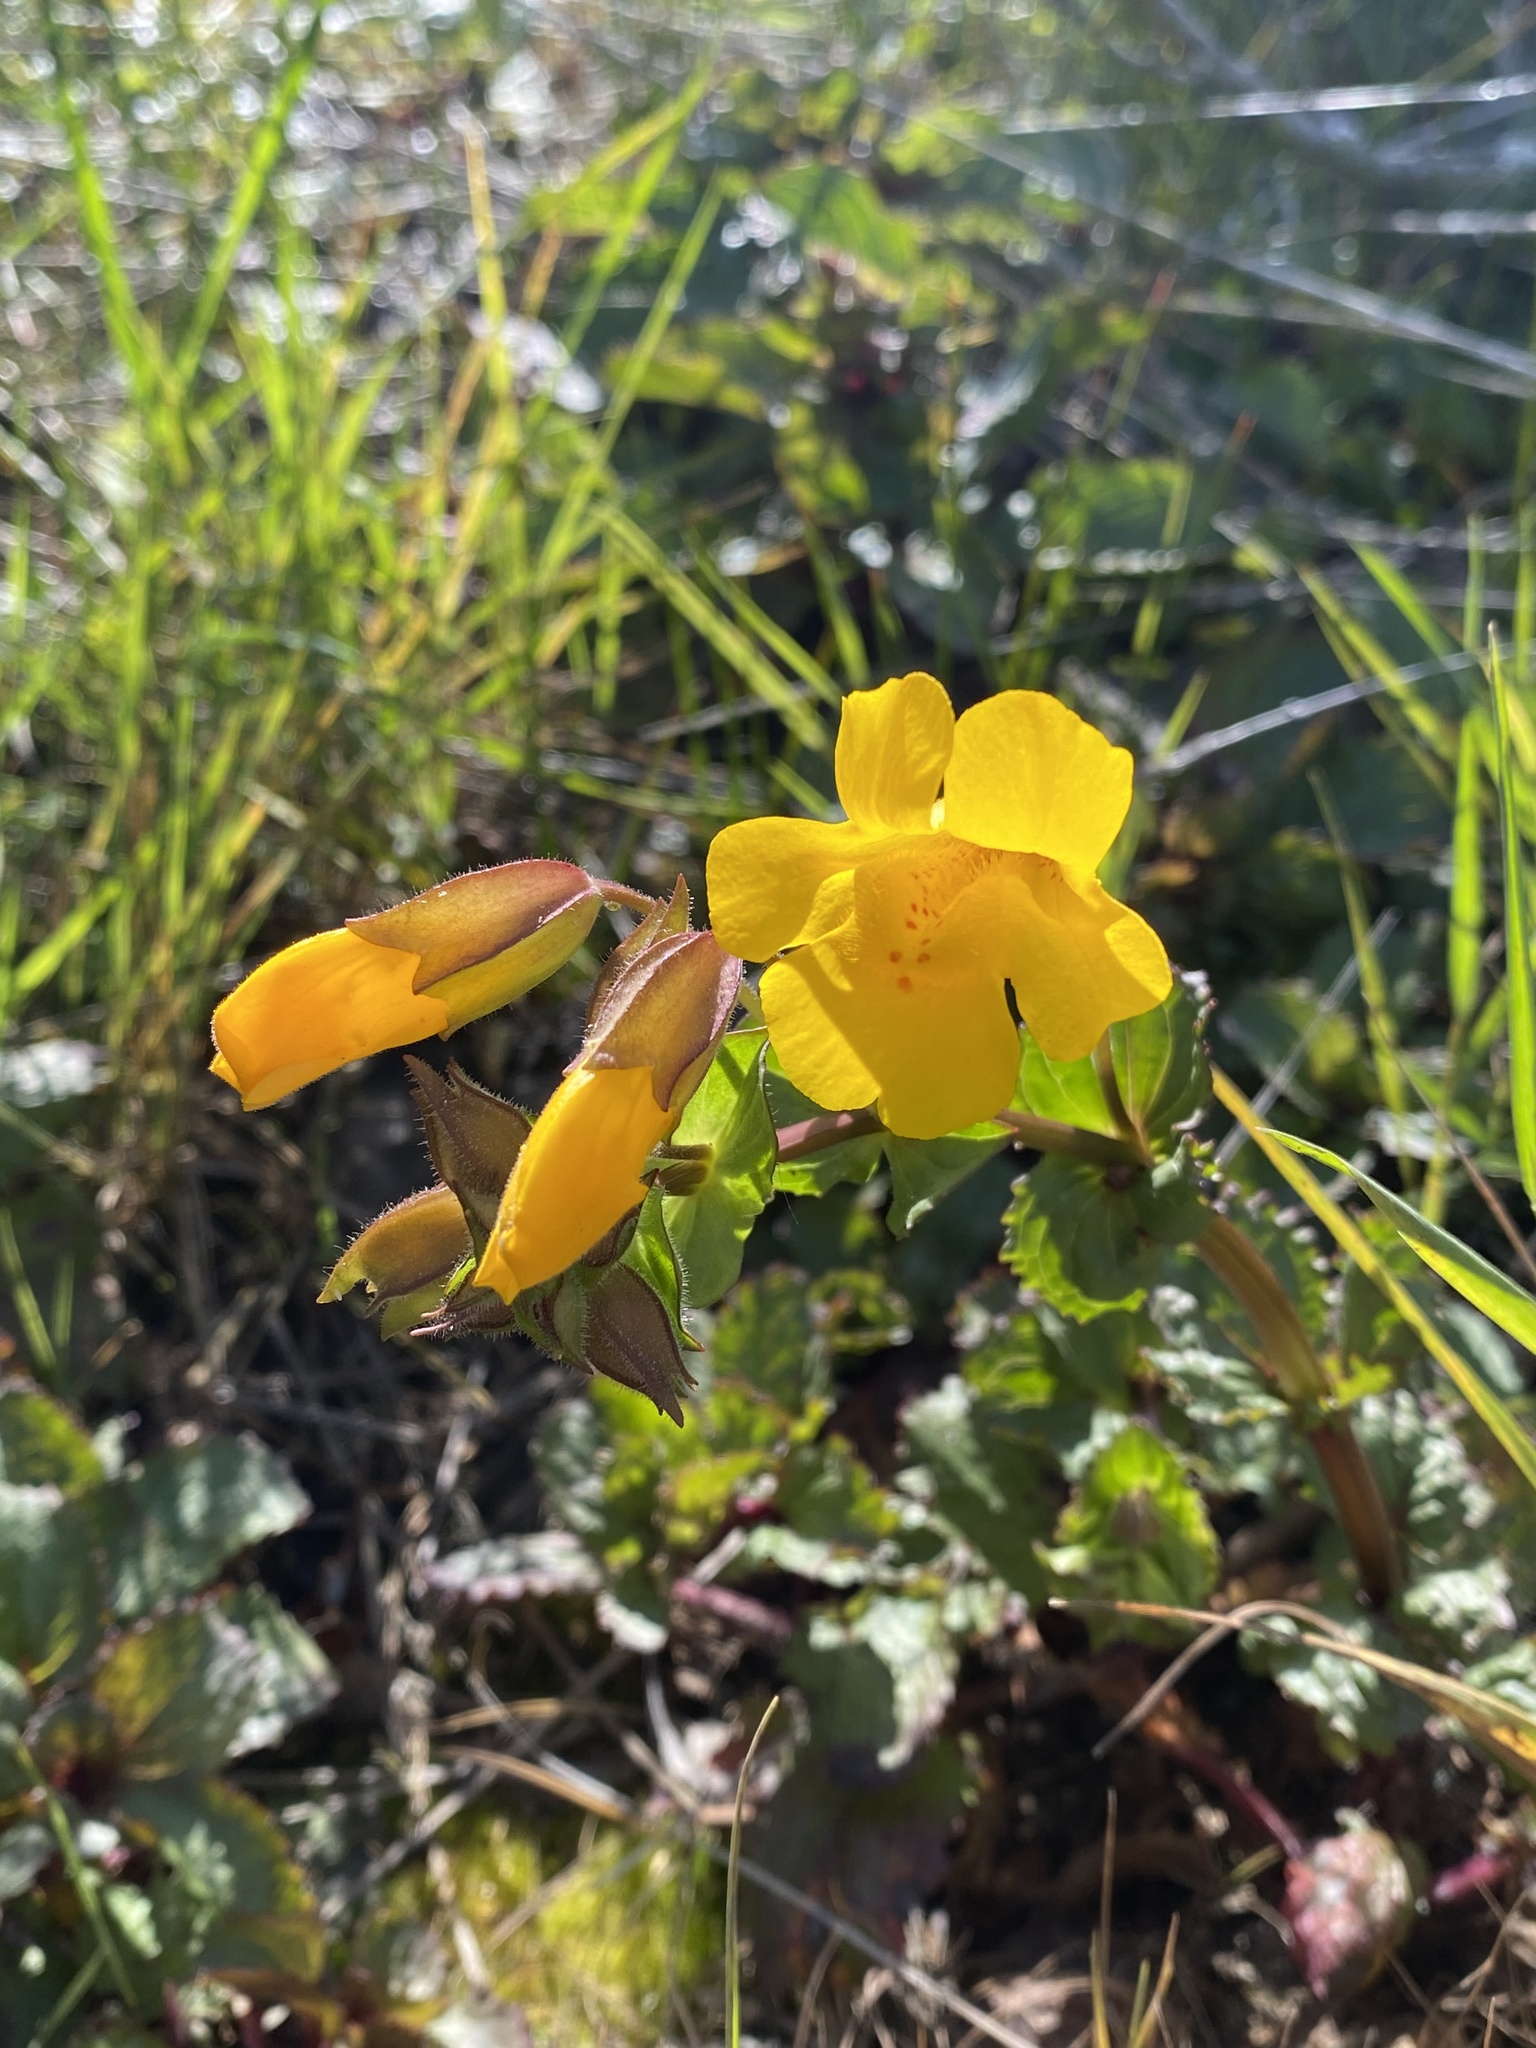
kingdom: Plantae
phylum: Tracheophyta
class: Magnoliopsida
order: Lamiales
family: Phrymaceae
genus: Erythranthe
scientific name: Erythranthe guttata
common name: Monkeyflower
